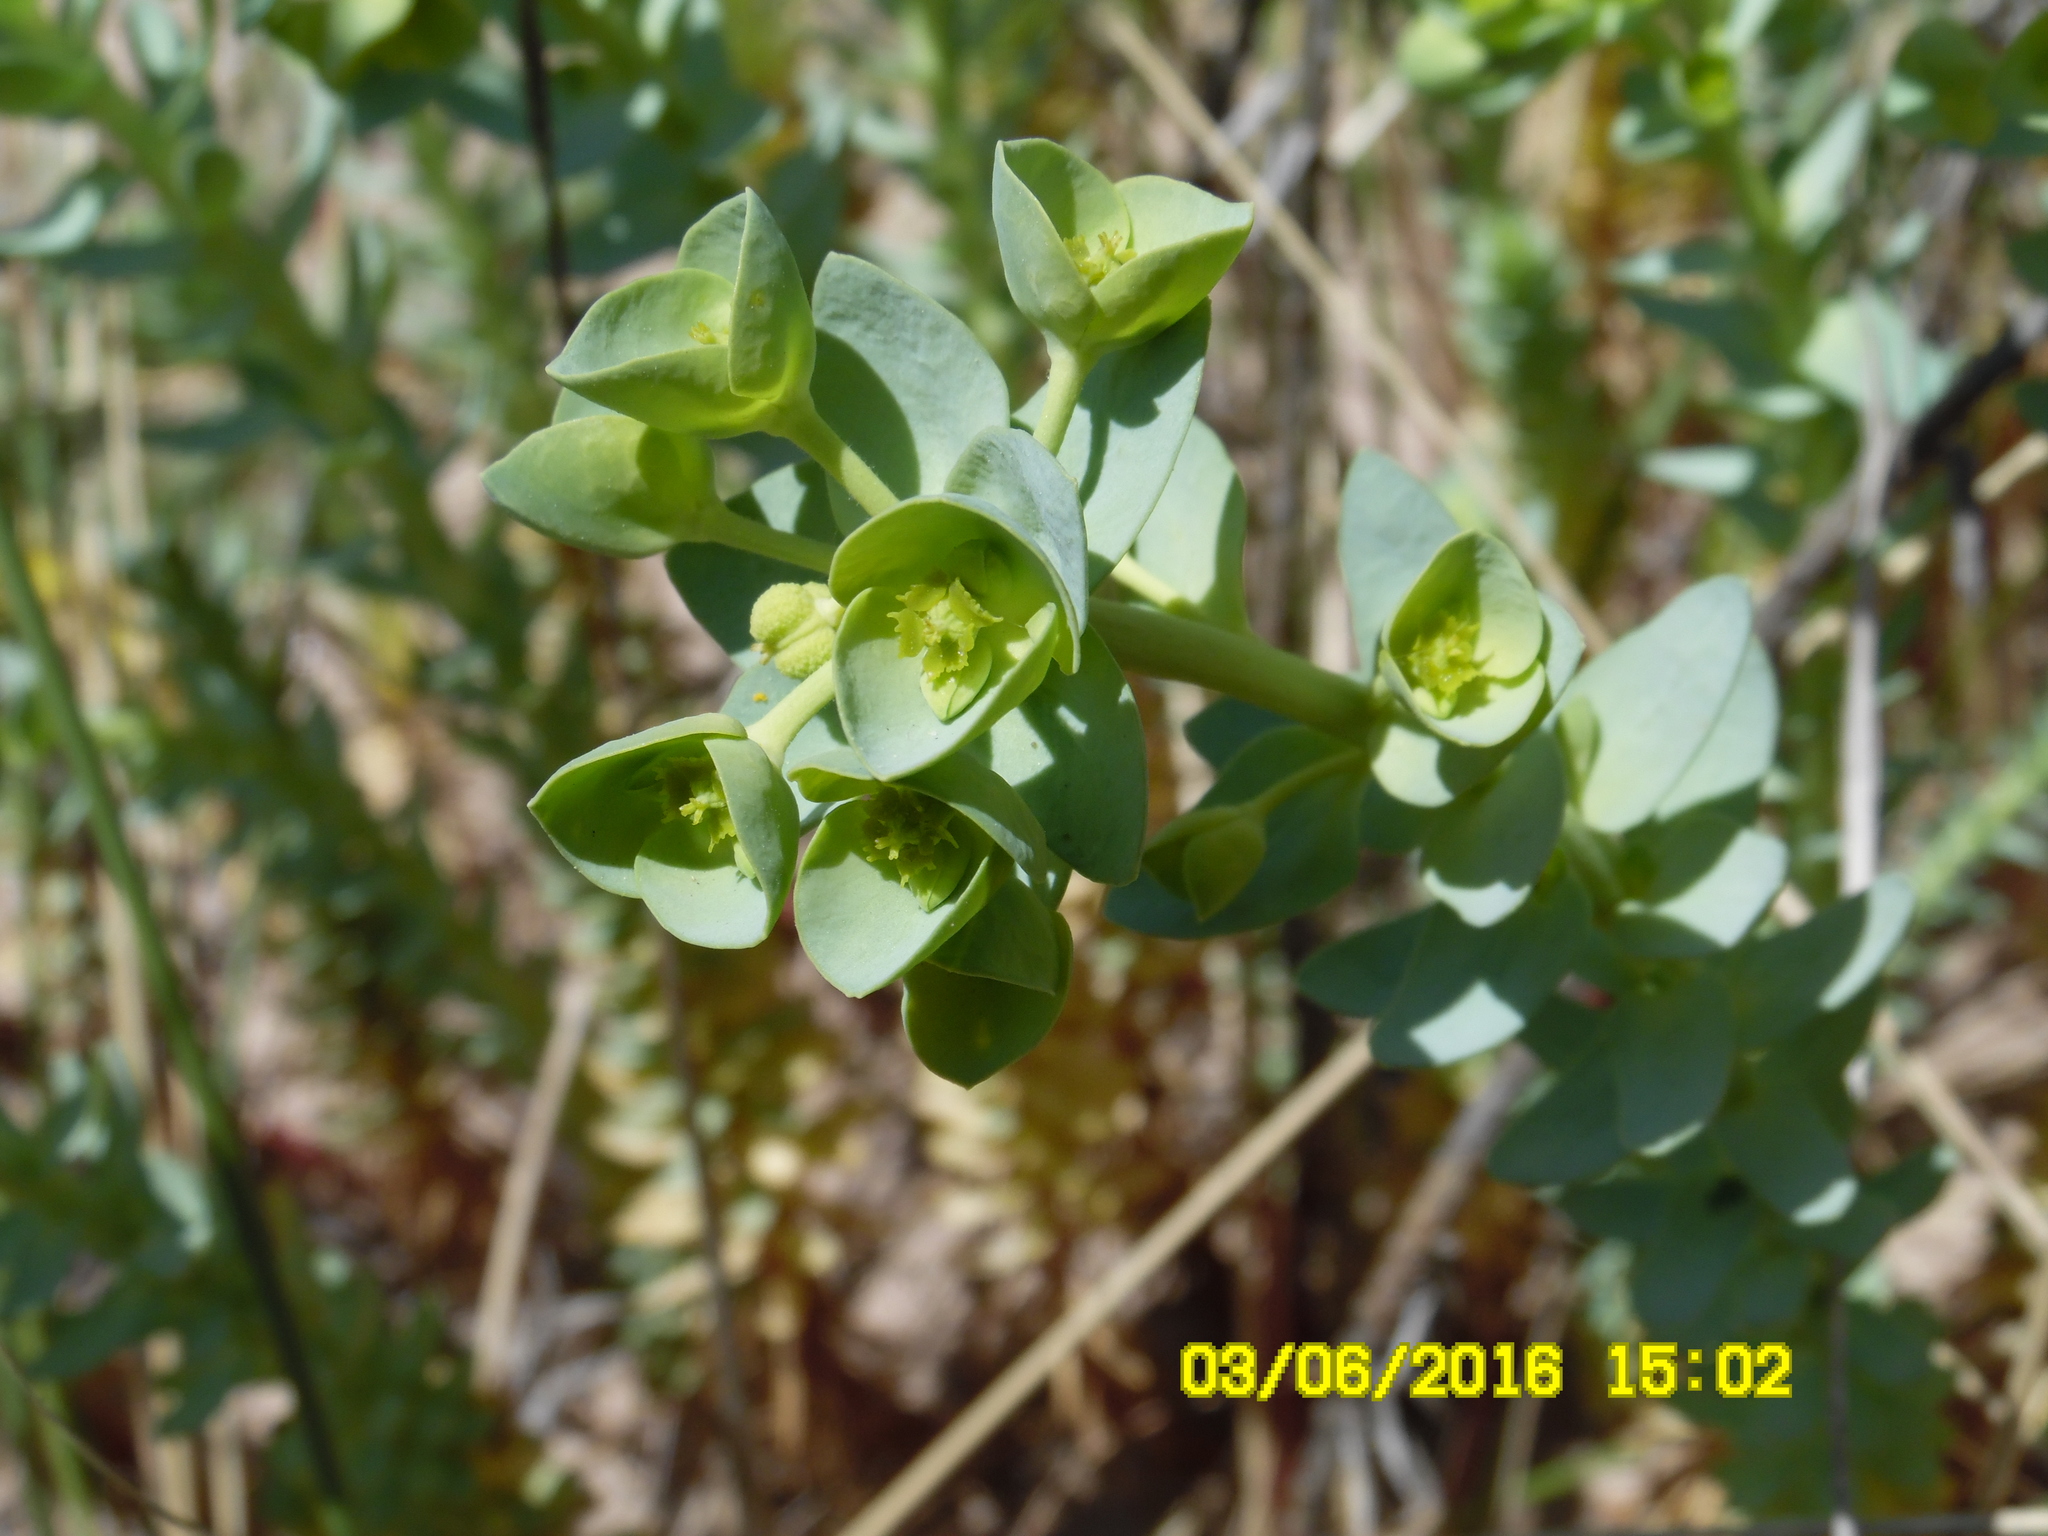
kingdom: Plantae
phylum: Tracheophyta
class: Magnoliopsida
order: Malpighiales
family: Euphorbiaceae
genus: Euphorbia
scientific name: Euphorbia paralias
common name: Sea spurge
